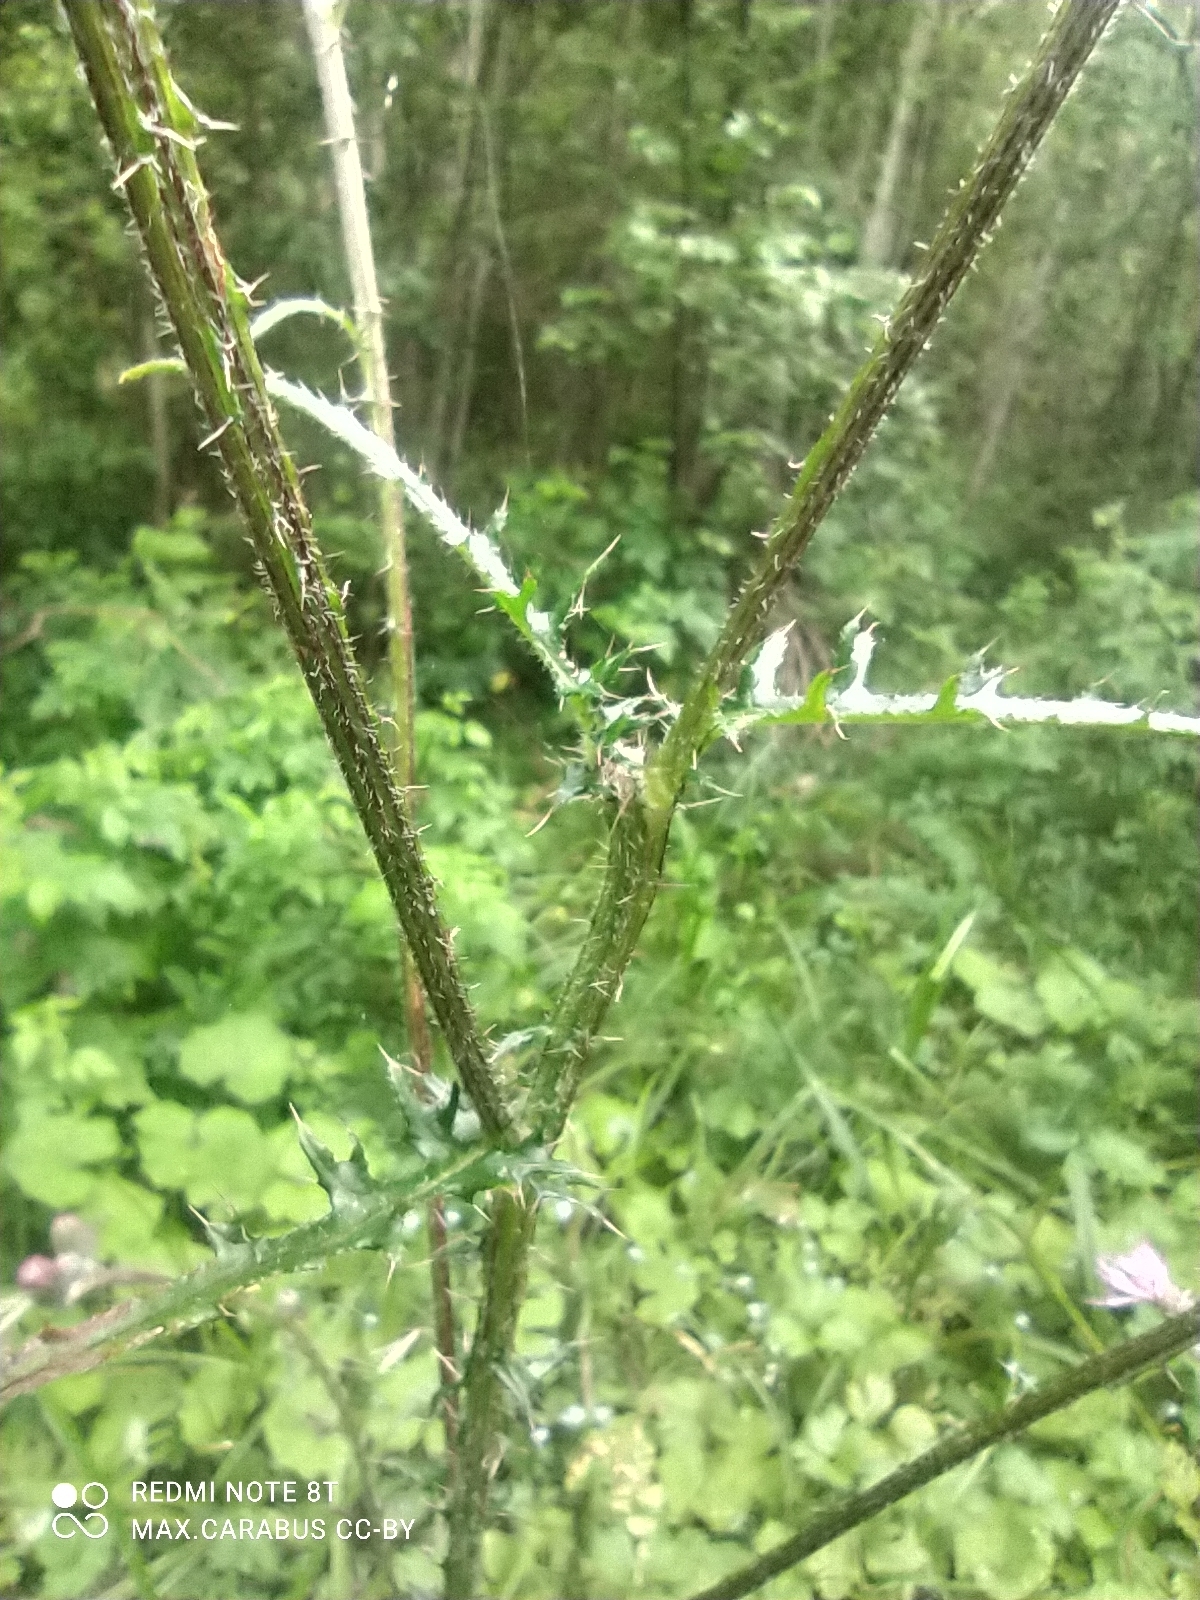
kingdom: Plantae
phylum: Tracheophyta
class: Magnoliopsida
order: Asterales
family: Asteraceae
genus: Cirsium
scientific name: Cirsium palustre
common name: Marsh thistle
